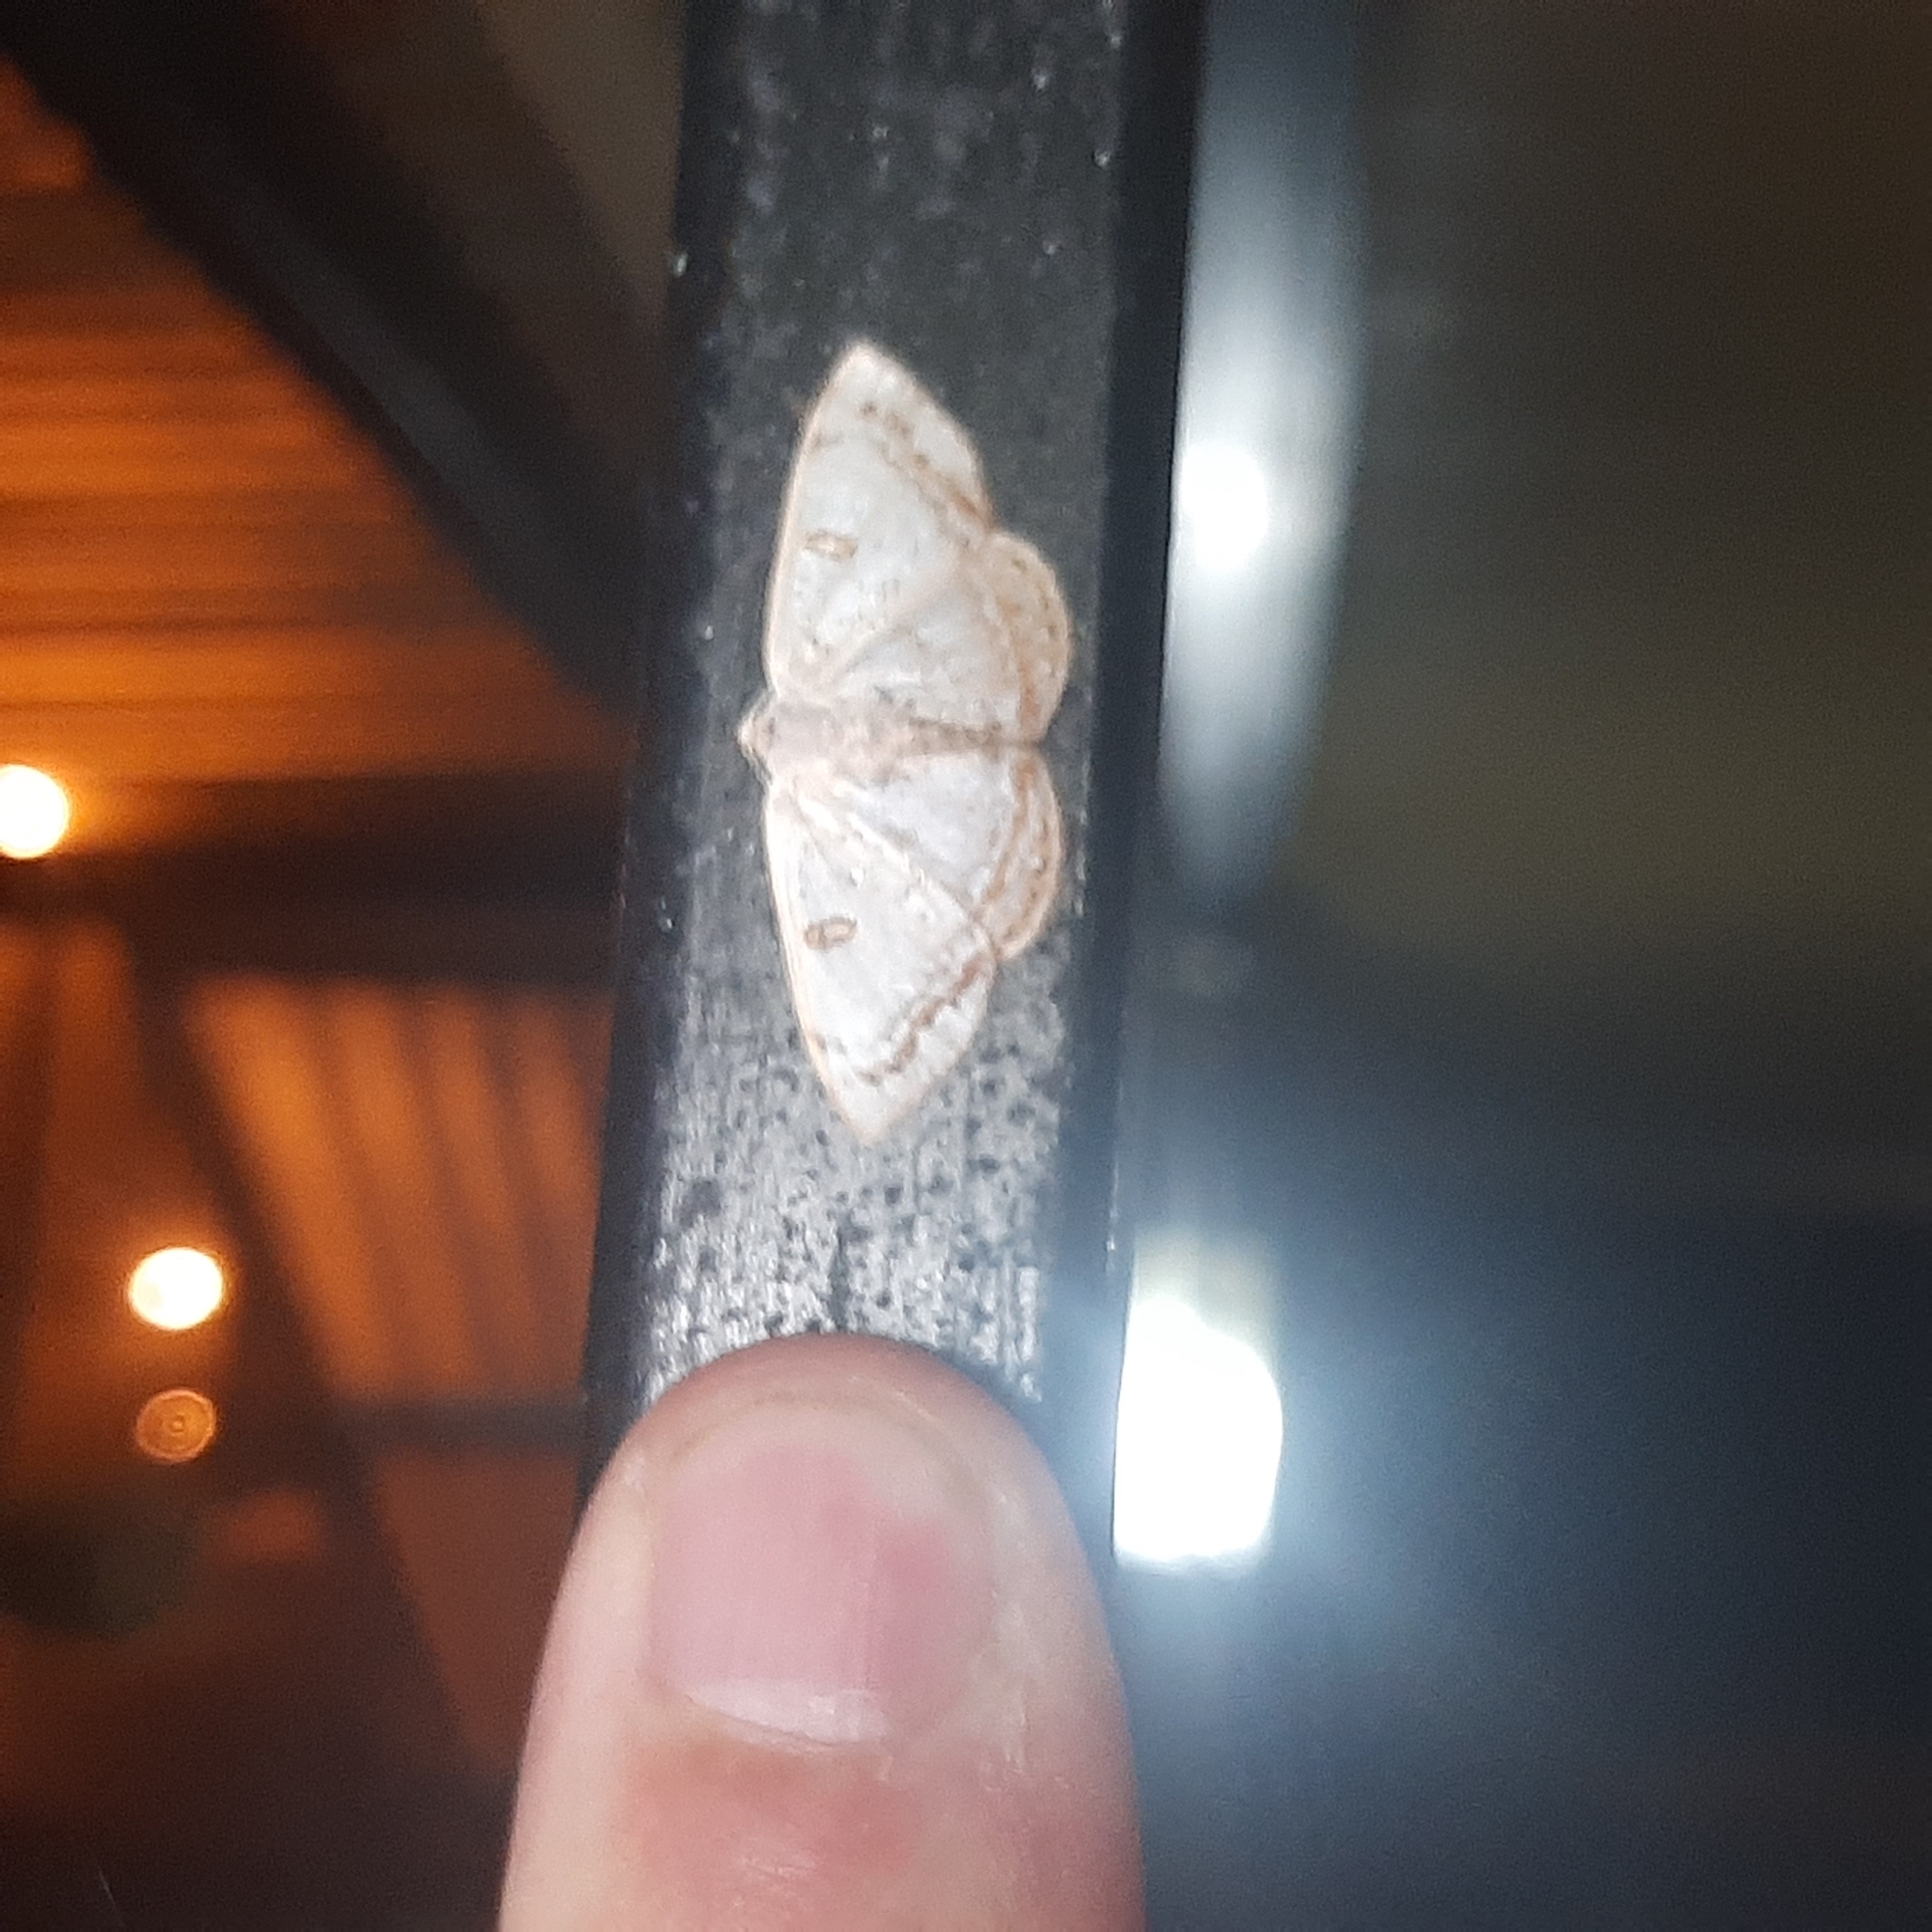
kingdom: Animalia
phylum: Arthropoda
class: Insecta
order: Lepidoptera
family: Geometridae
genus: Argyrotome
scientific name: Argyrotome prospectata
